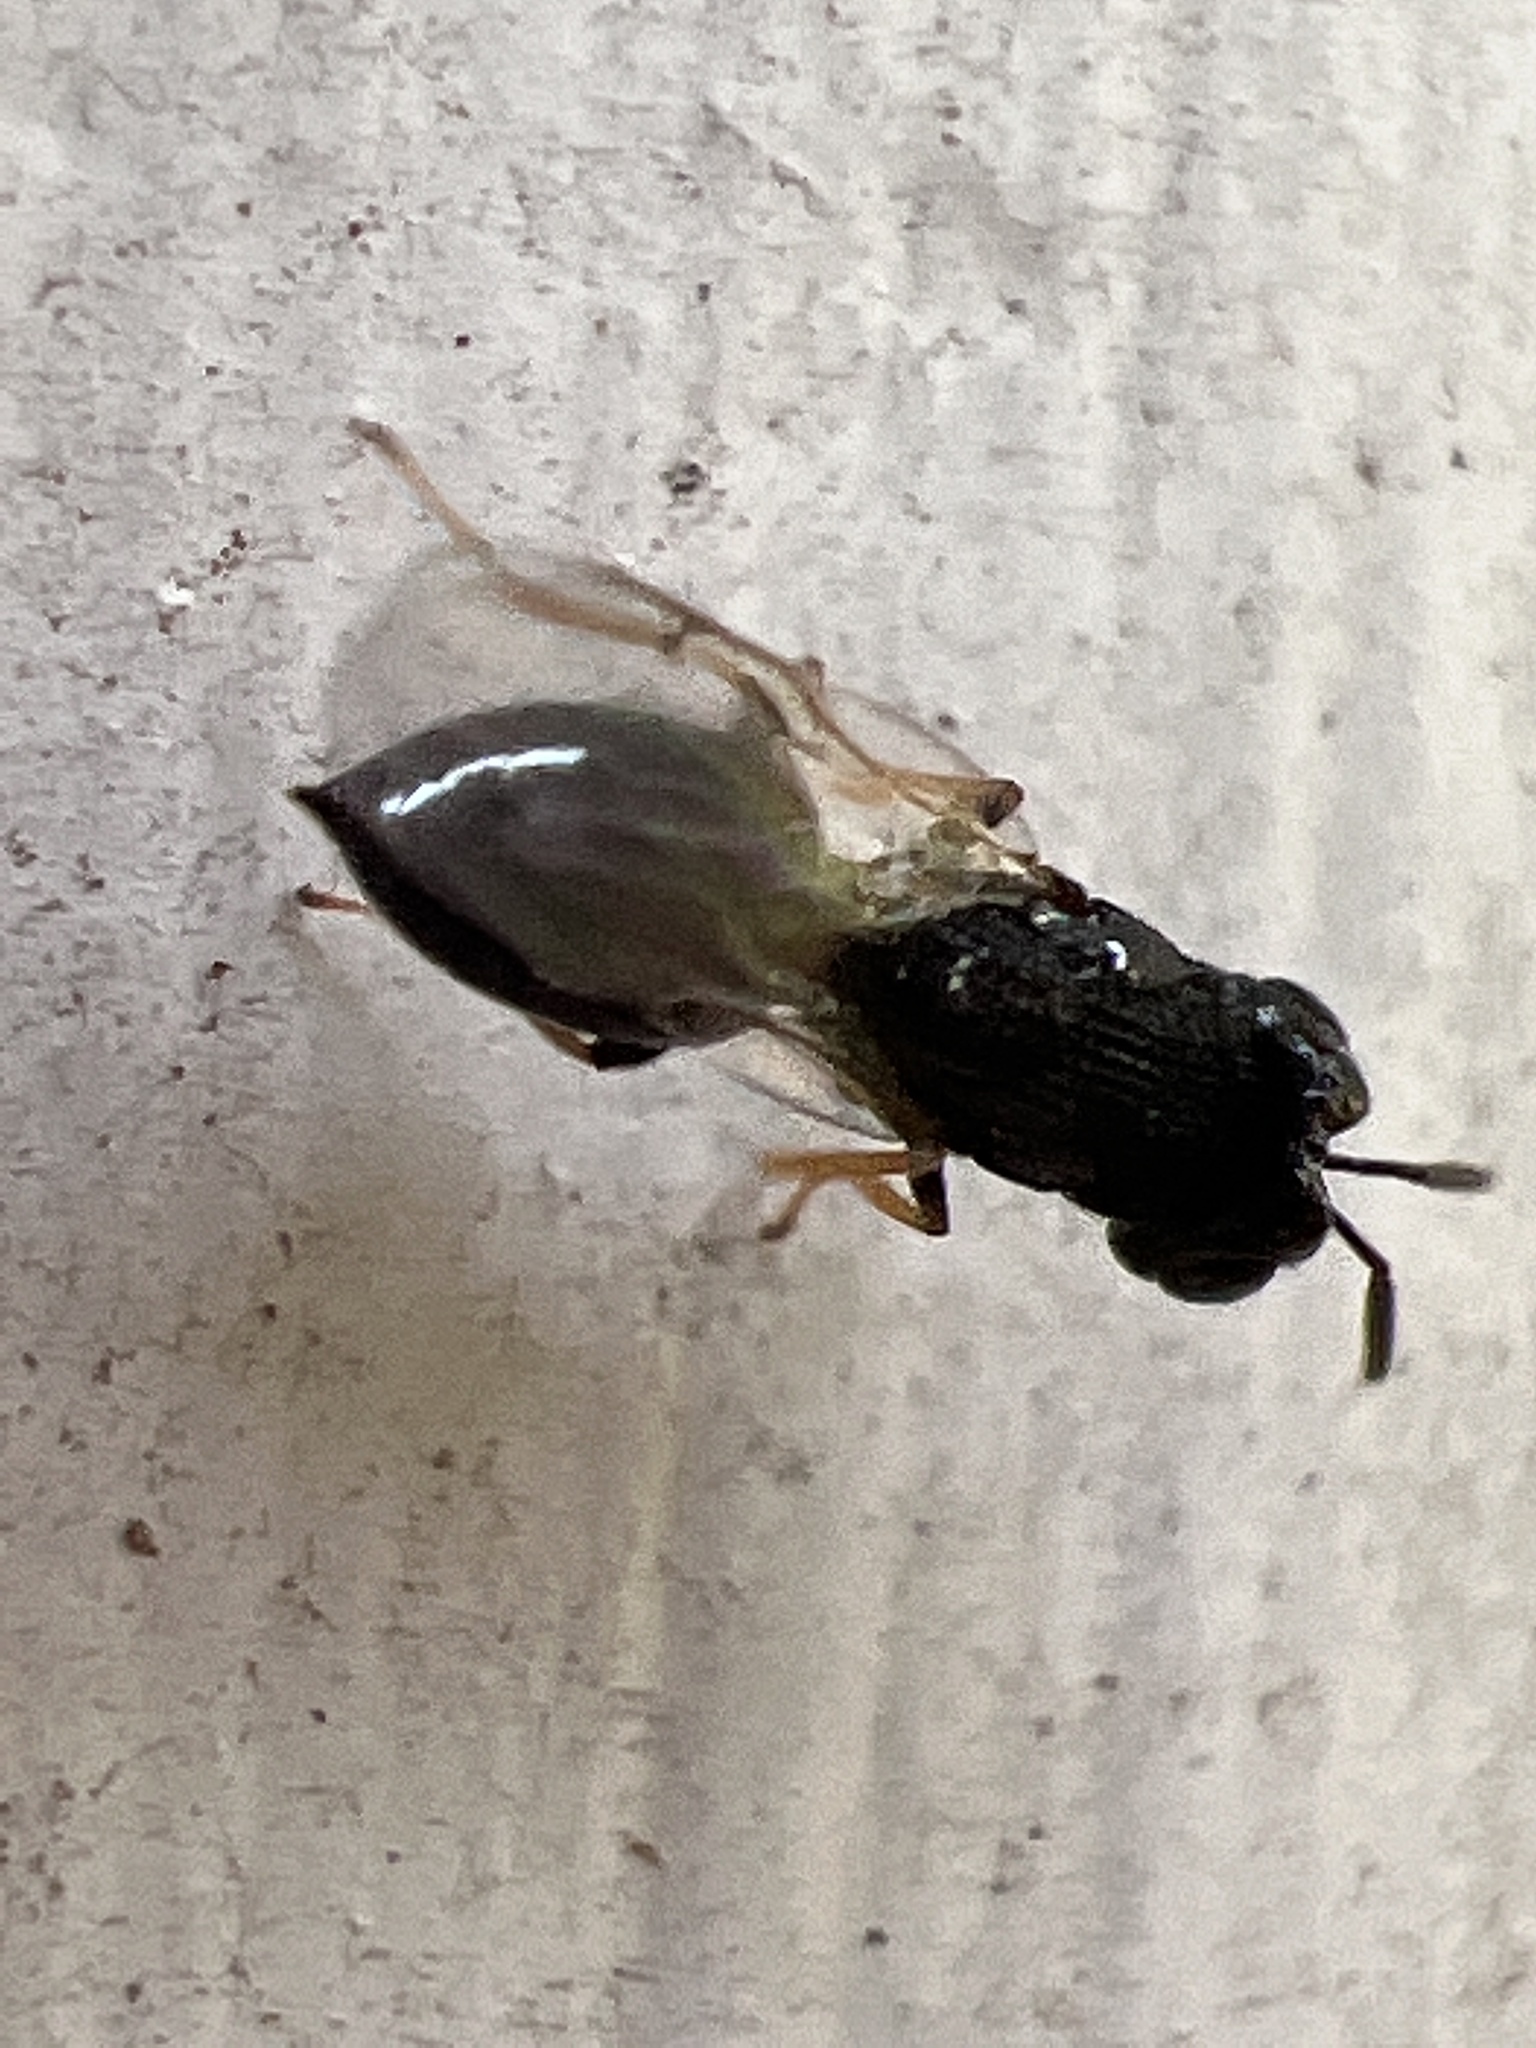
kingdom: Animalia
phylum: Arthropoda
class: Insecta
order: Hymenoptera
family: Perilampidae
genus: Steffanolampus
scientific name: Steffanolampus salicetum
